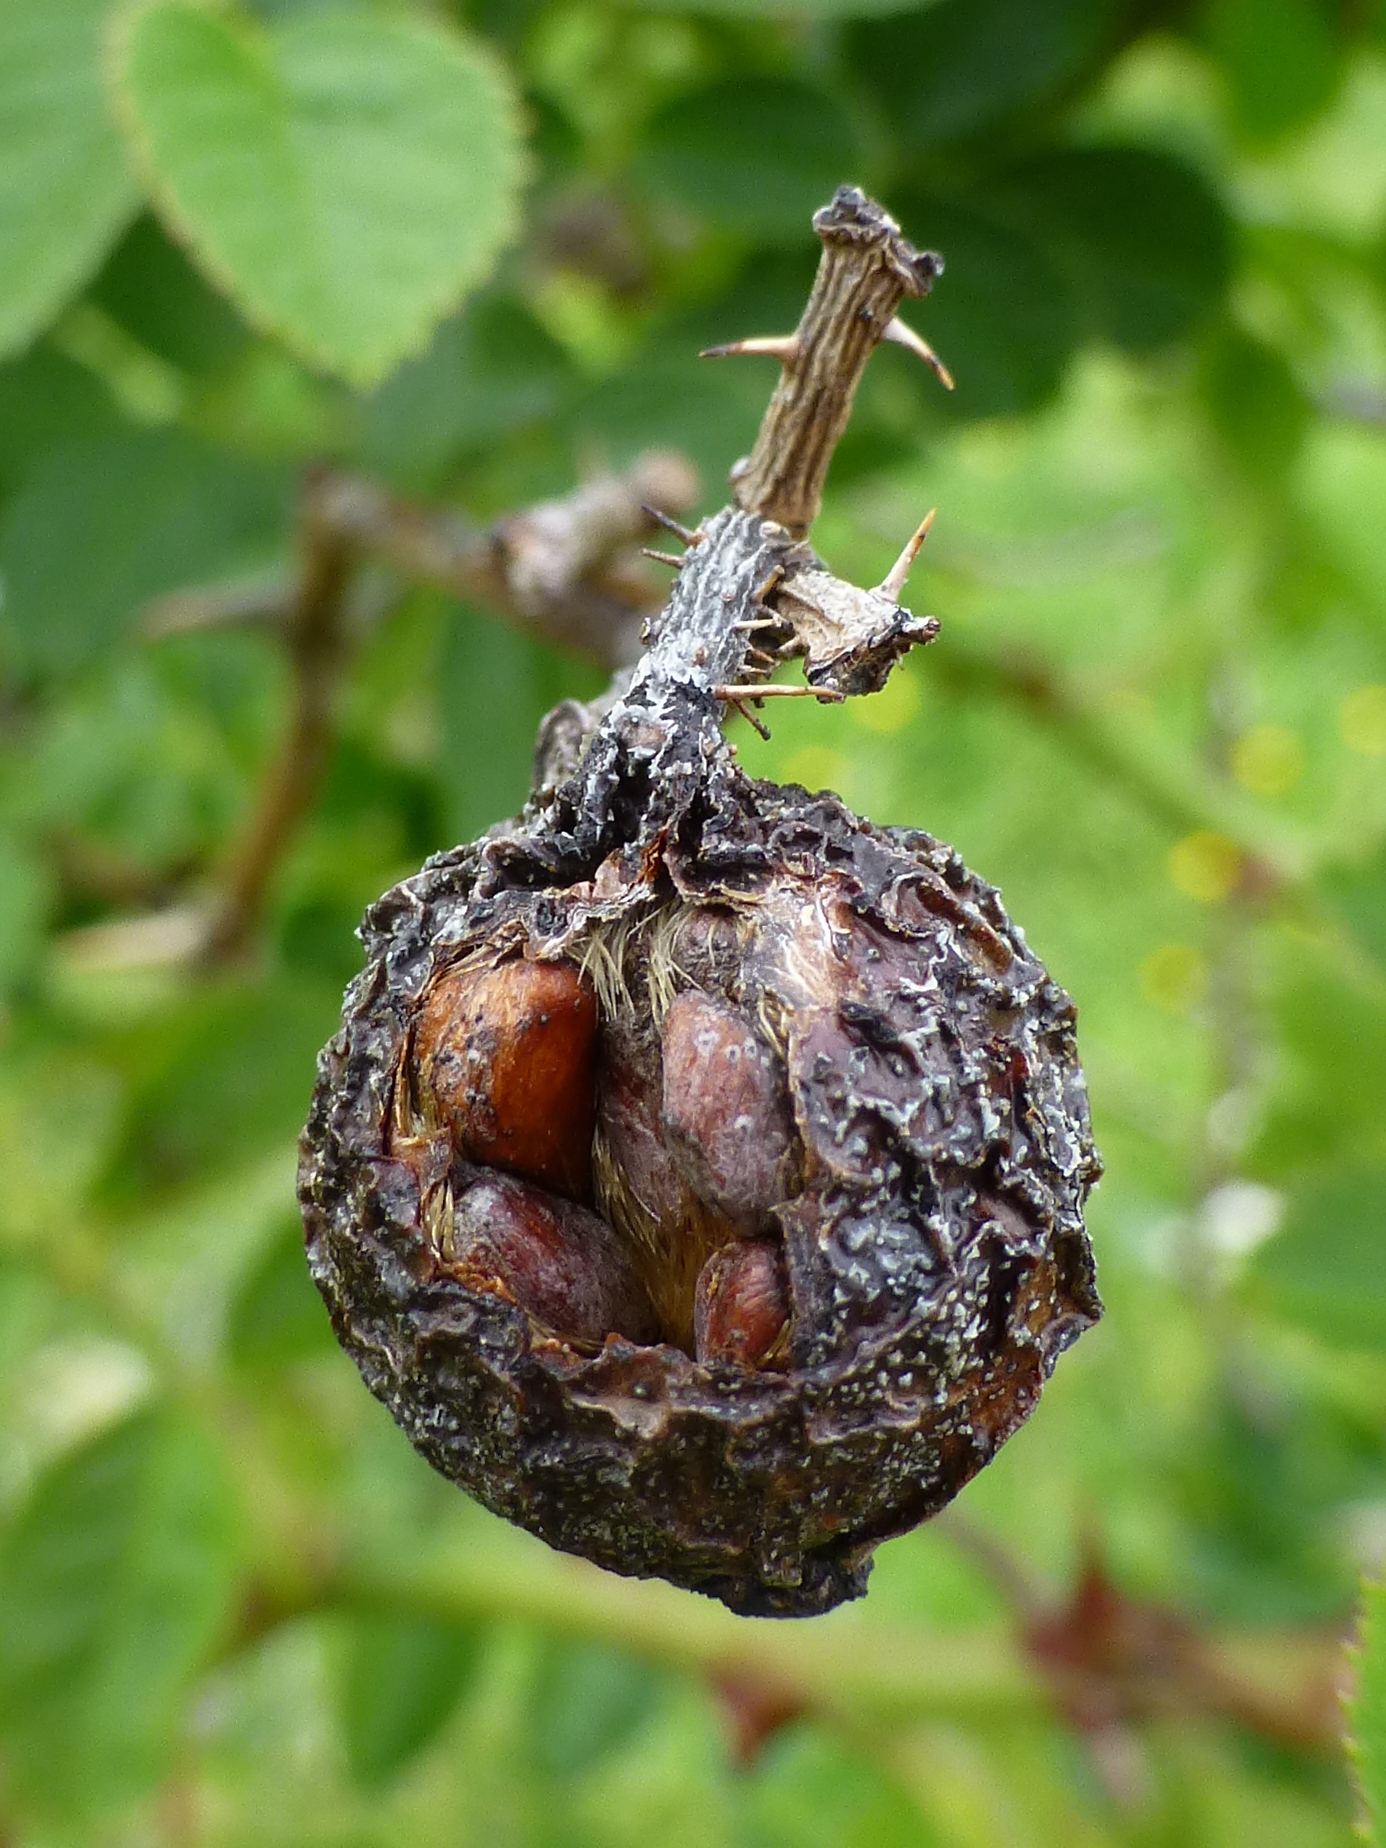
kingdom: Plantae
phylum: Tracheophyta
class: Magnoliopsida
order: Rosales
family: Rosaceae
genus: Rosa
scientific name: Rosa rubiginosa
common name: Sweet-briar
